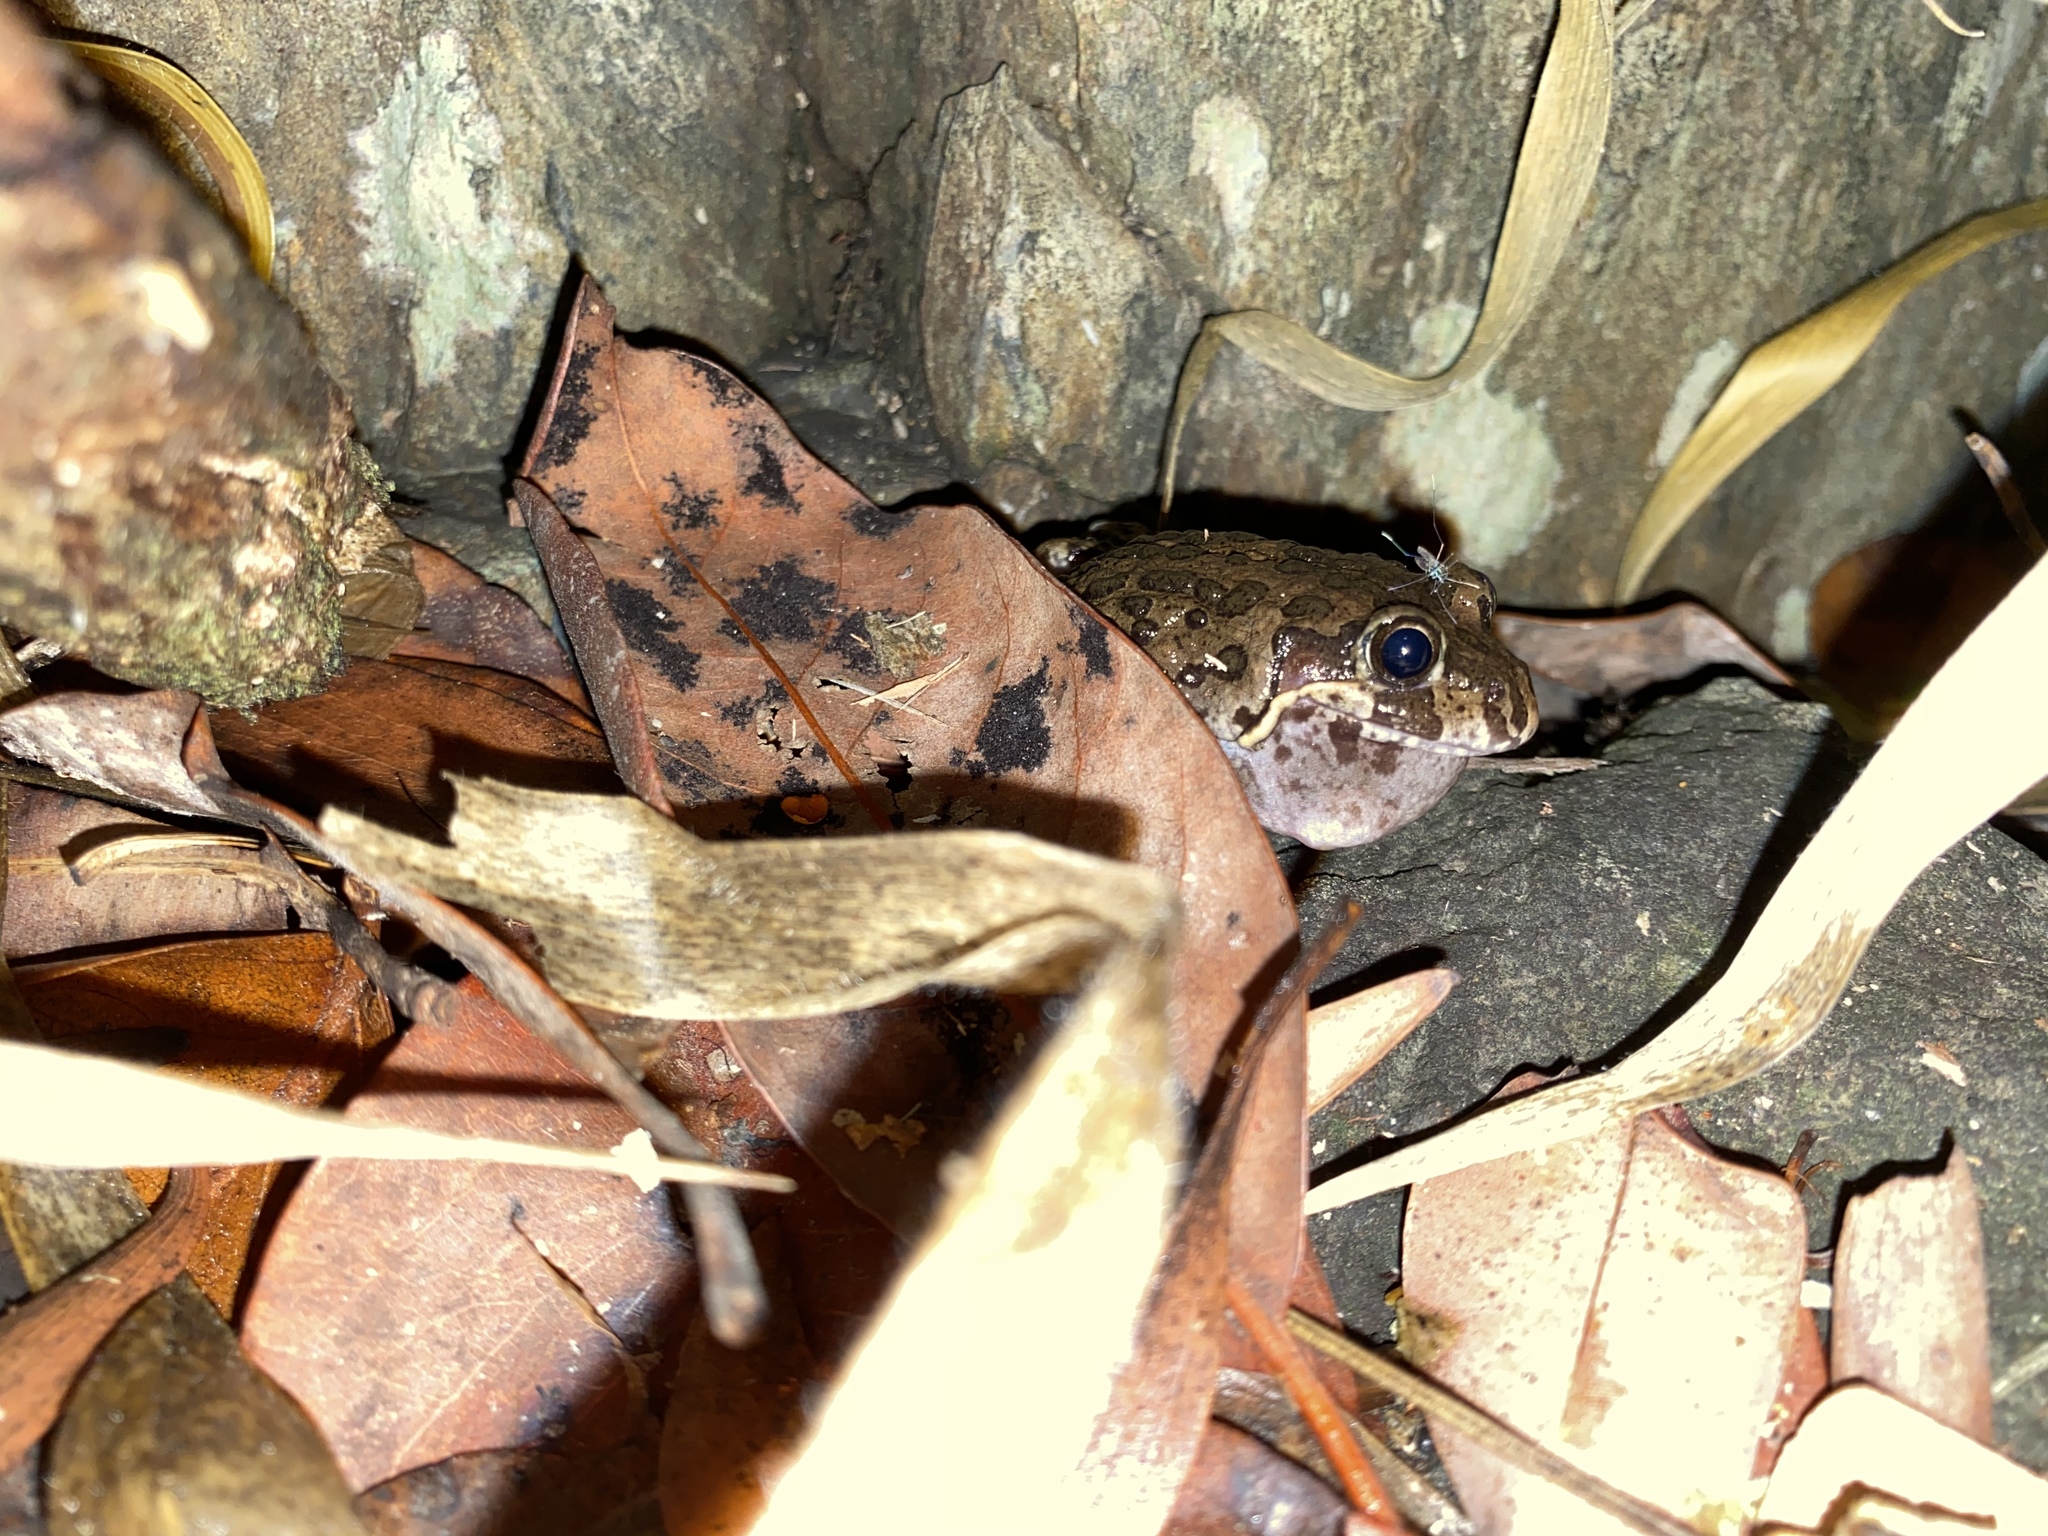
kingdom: Animalia
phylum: Chordata
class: Amphibia
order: Anura
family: Limnodynastidae
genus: Limnodynastes
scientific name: Limnodynastes convexiusculus
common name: Marbled frog
